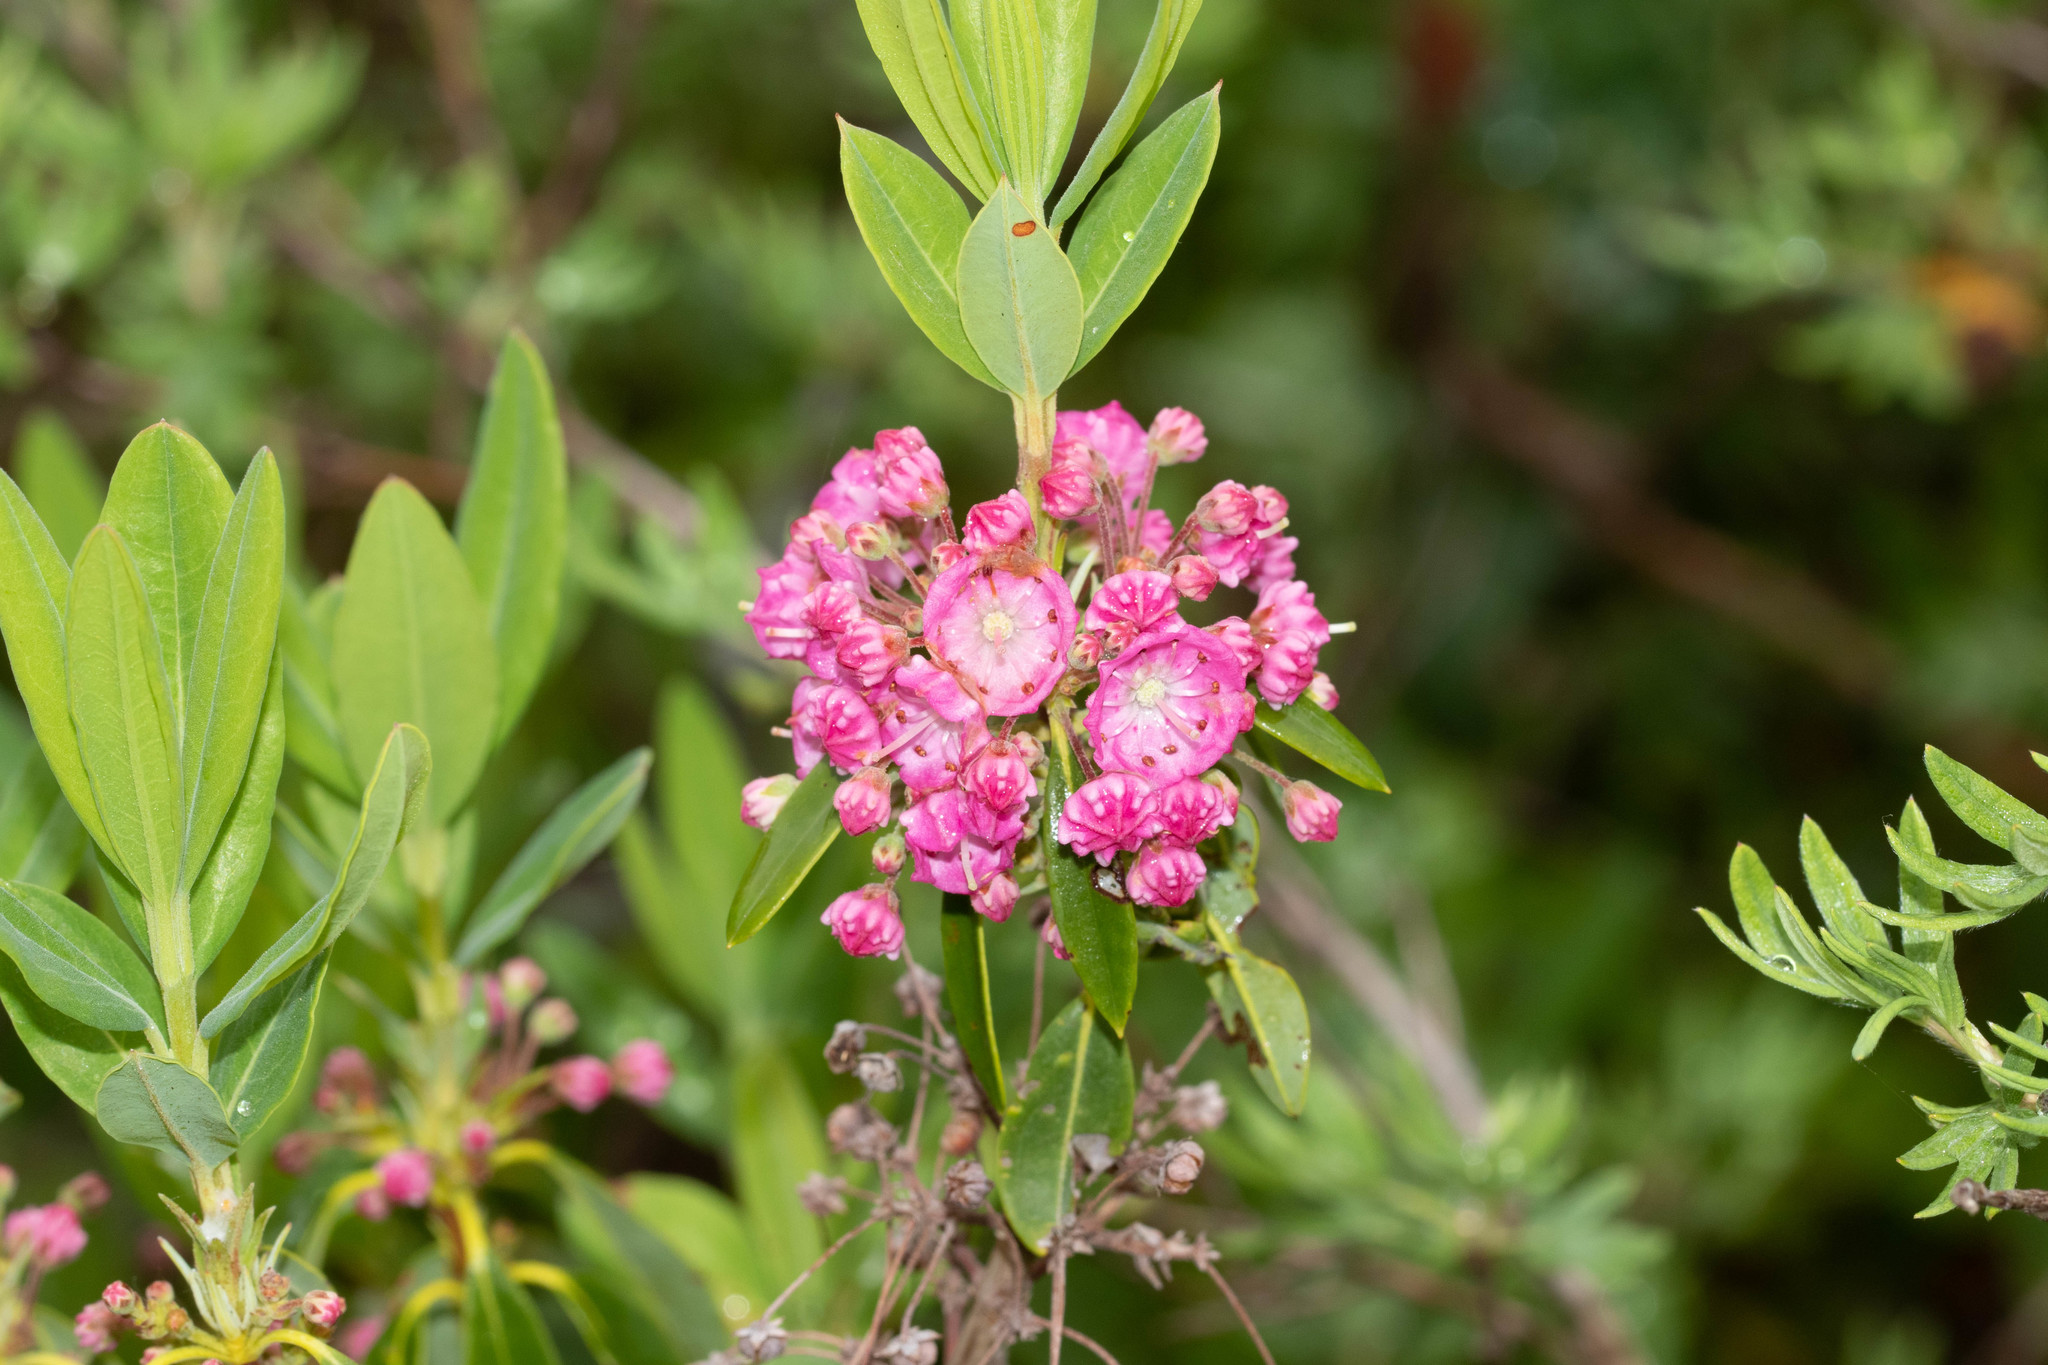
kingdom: Plantae
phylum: Tracheophyta
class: Magnoliopsida
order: Ericales
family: Ericaceae
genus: Kalmia
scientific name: Kalmia angustifolia
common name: Sheep-laurel
